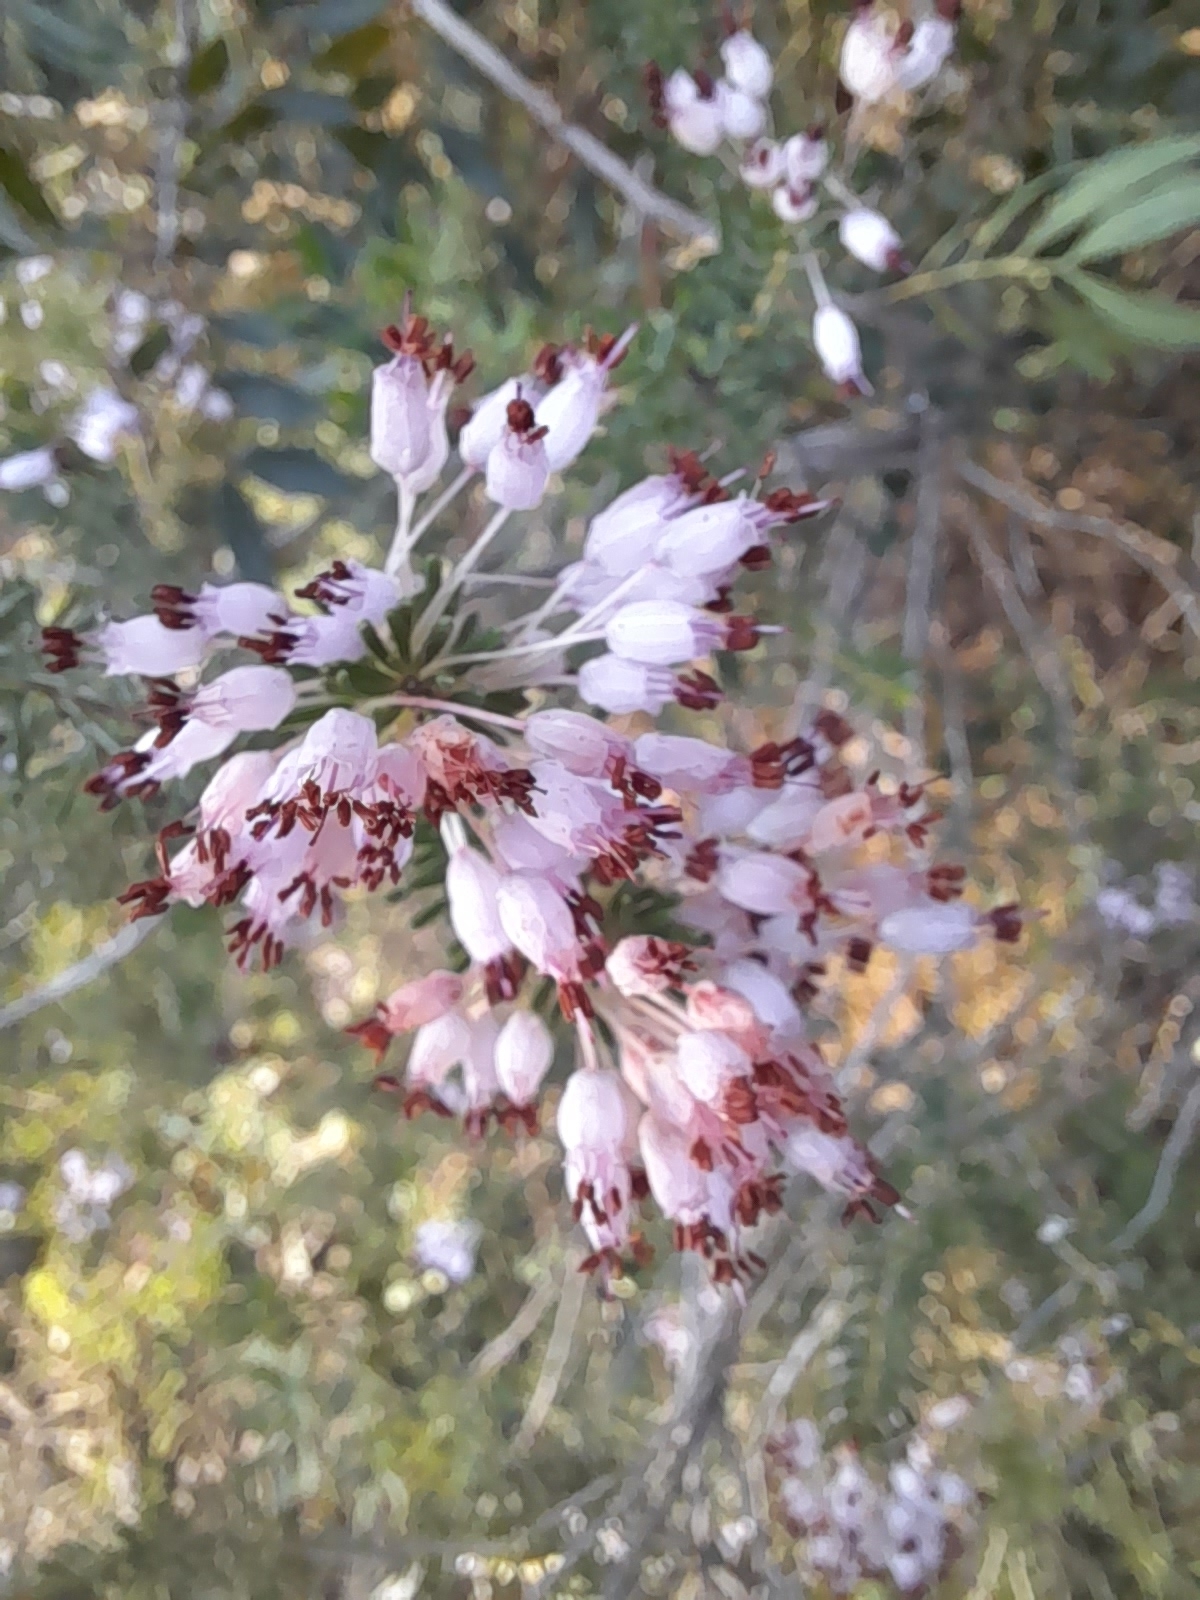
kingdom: Plantae
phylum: Tracheophyta
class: Magnoliopsida
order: Ericales
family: Ericaceae
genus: Erica
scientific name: Erica multiflora
